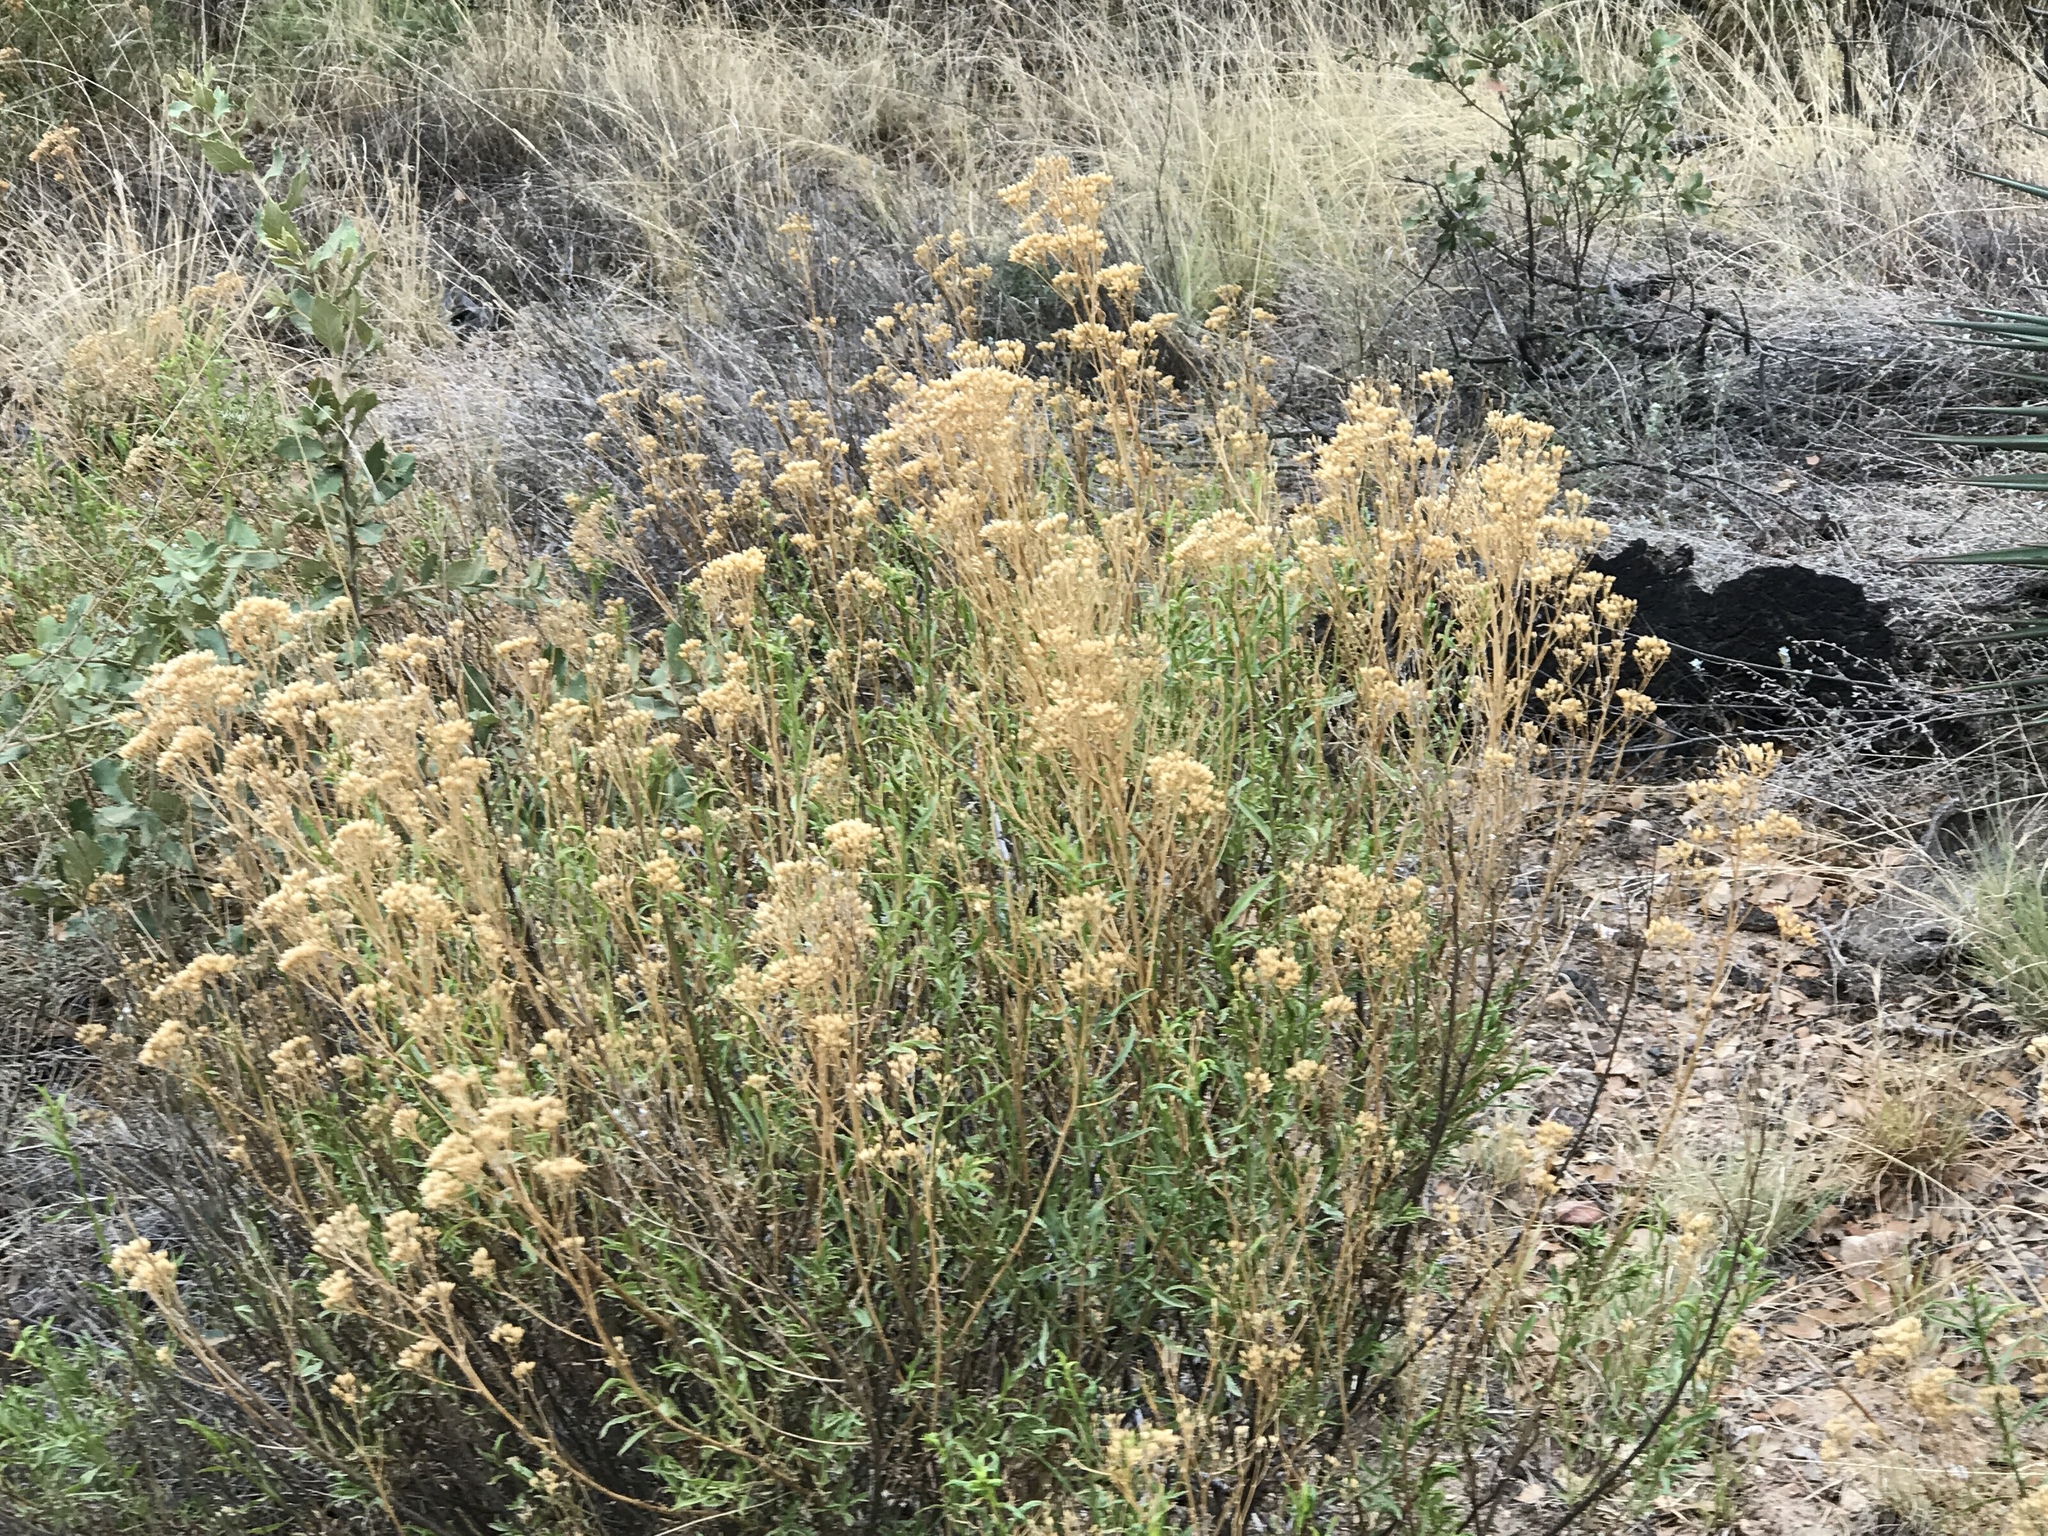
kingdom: Plantae
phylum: Tracheophyta
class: Magnoliopsida
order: Asterales
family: Asteraceae
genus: Ericameria
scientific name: Ericameria nauseosa
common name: Rubber rabbitbrush
